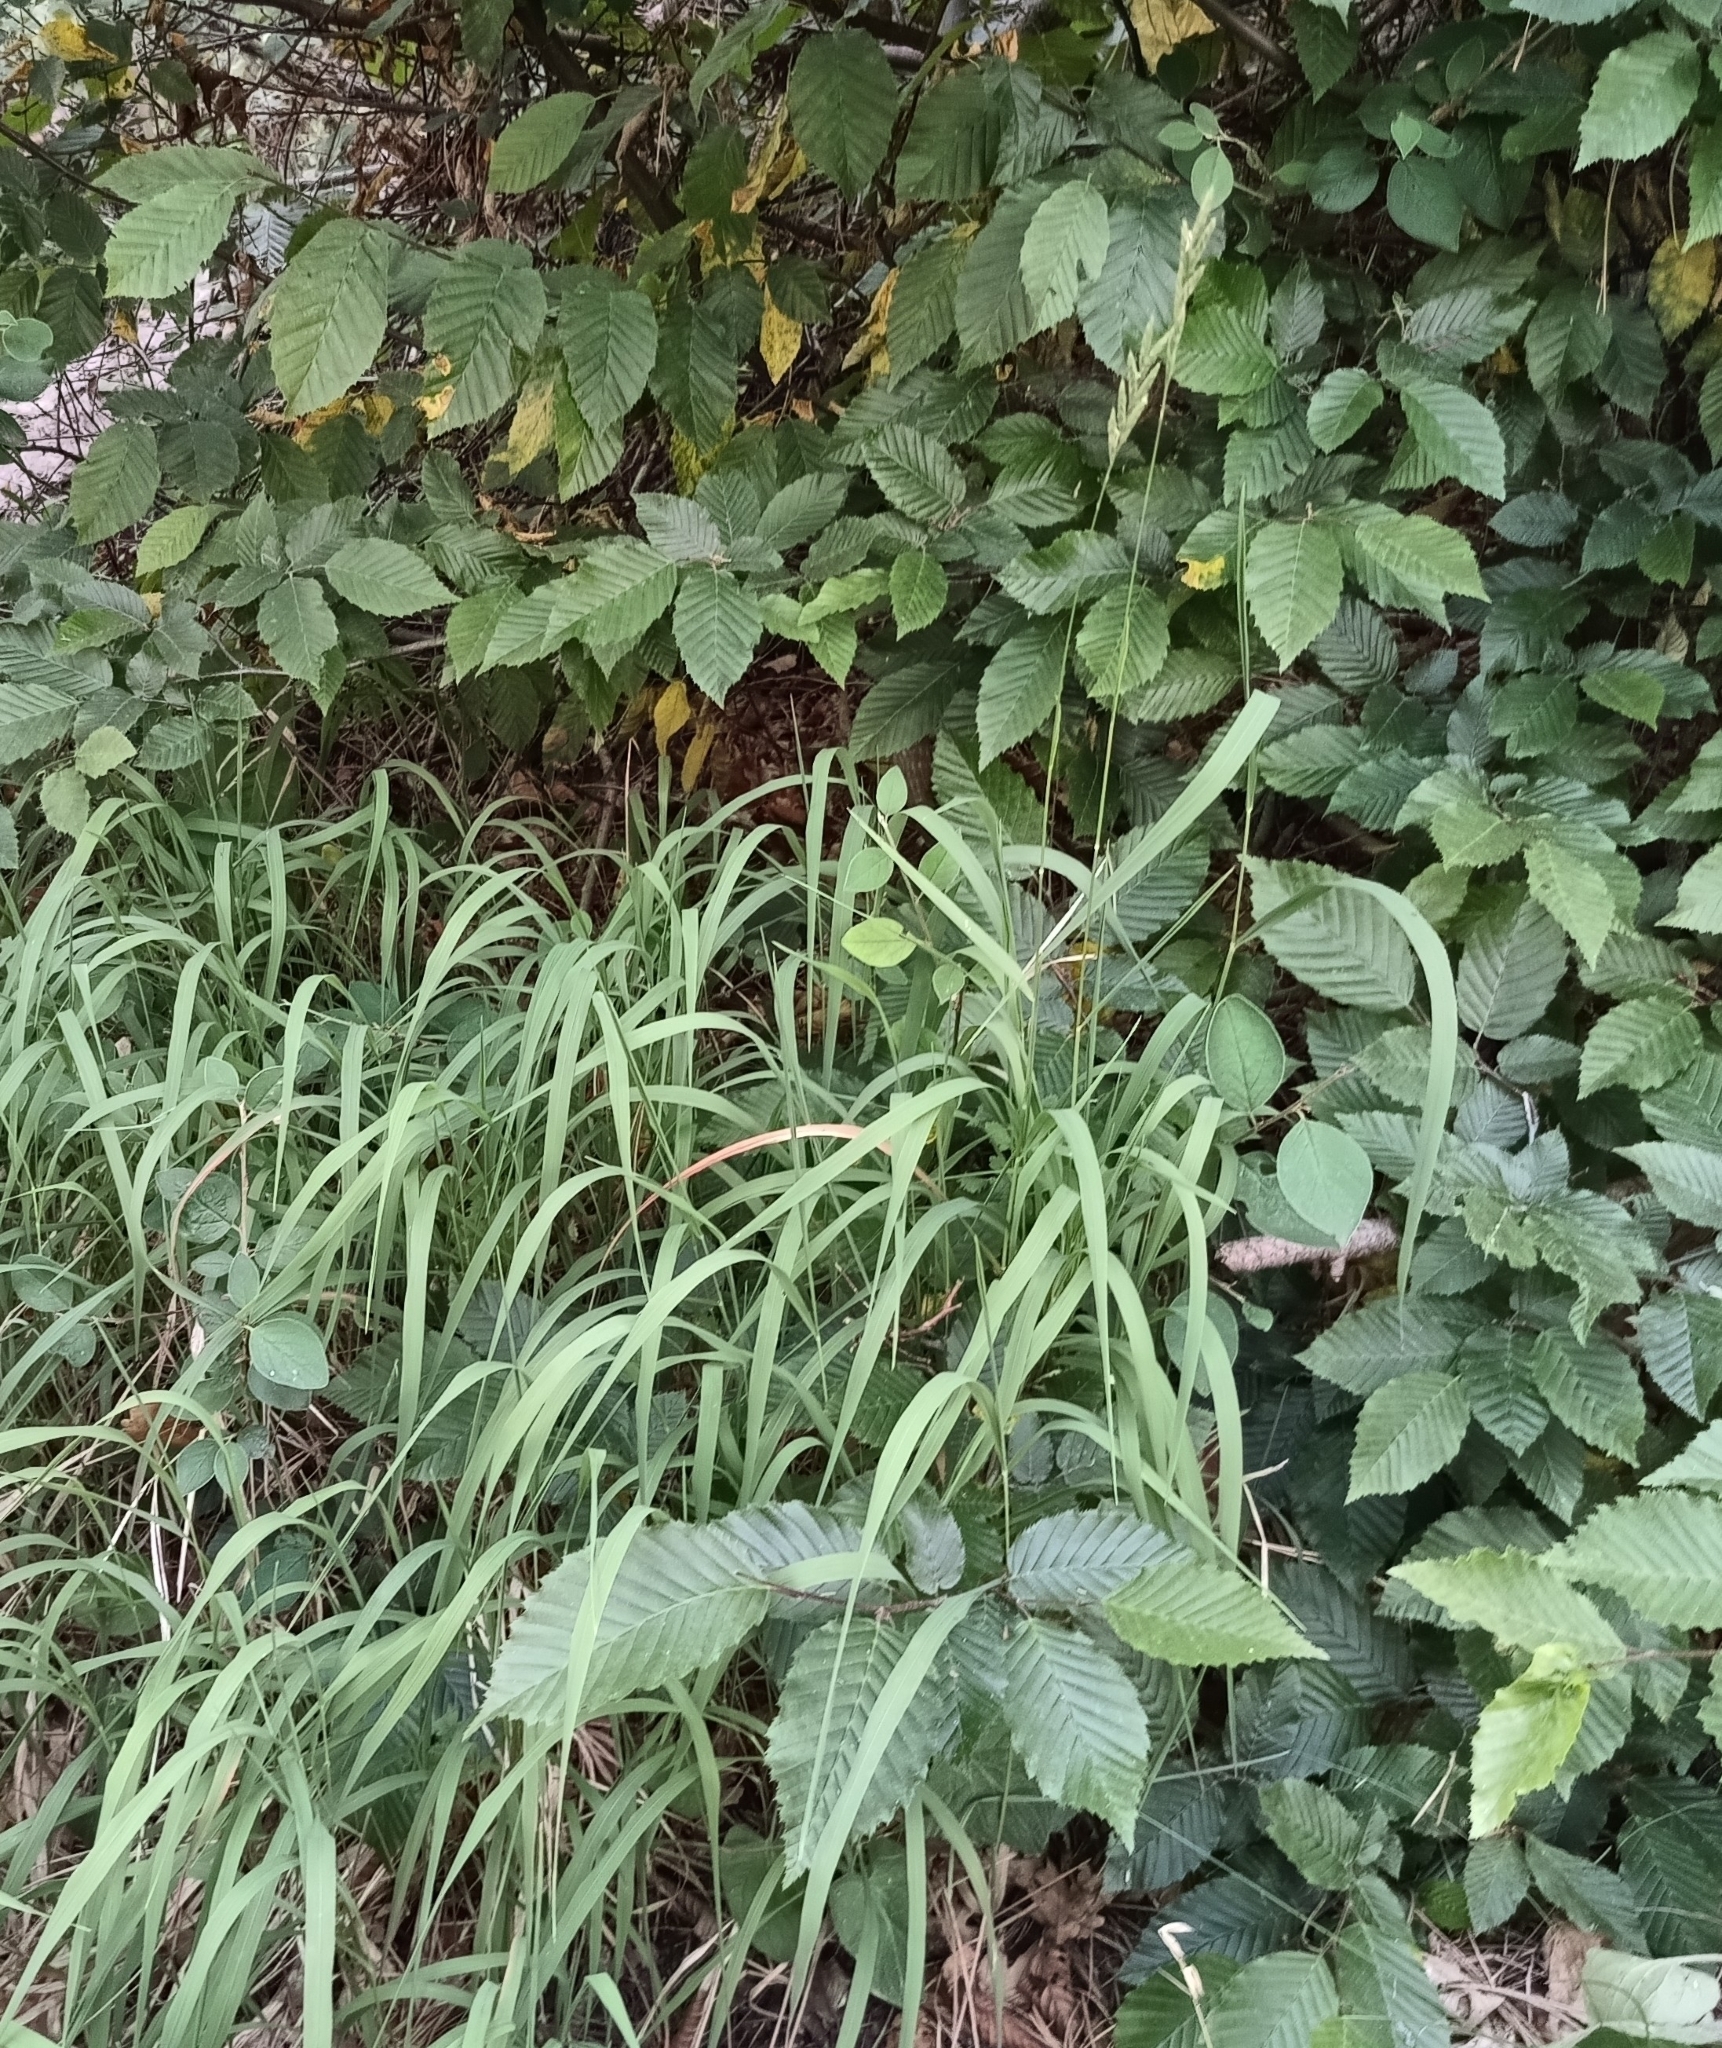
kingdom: Plantae
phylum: Tracheophyta
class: Liliopsida
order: Poales
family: Poaceae
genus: Brachypodium
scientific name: Brachypodium pinnatum
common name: Tor grass
